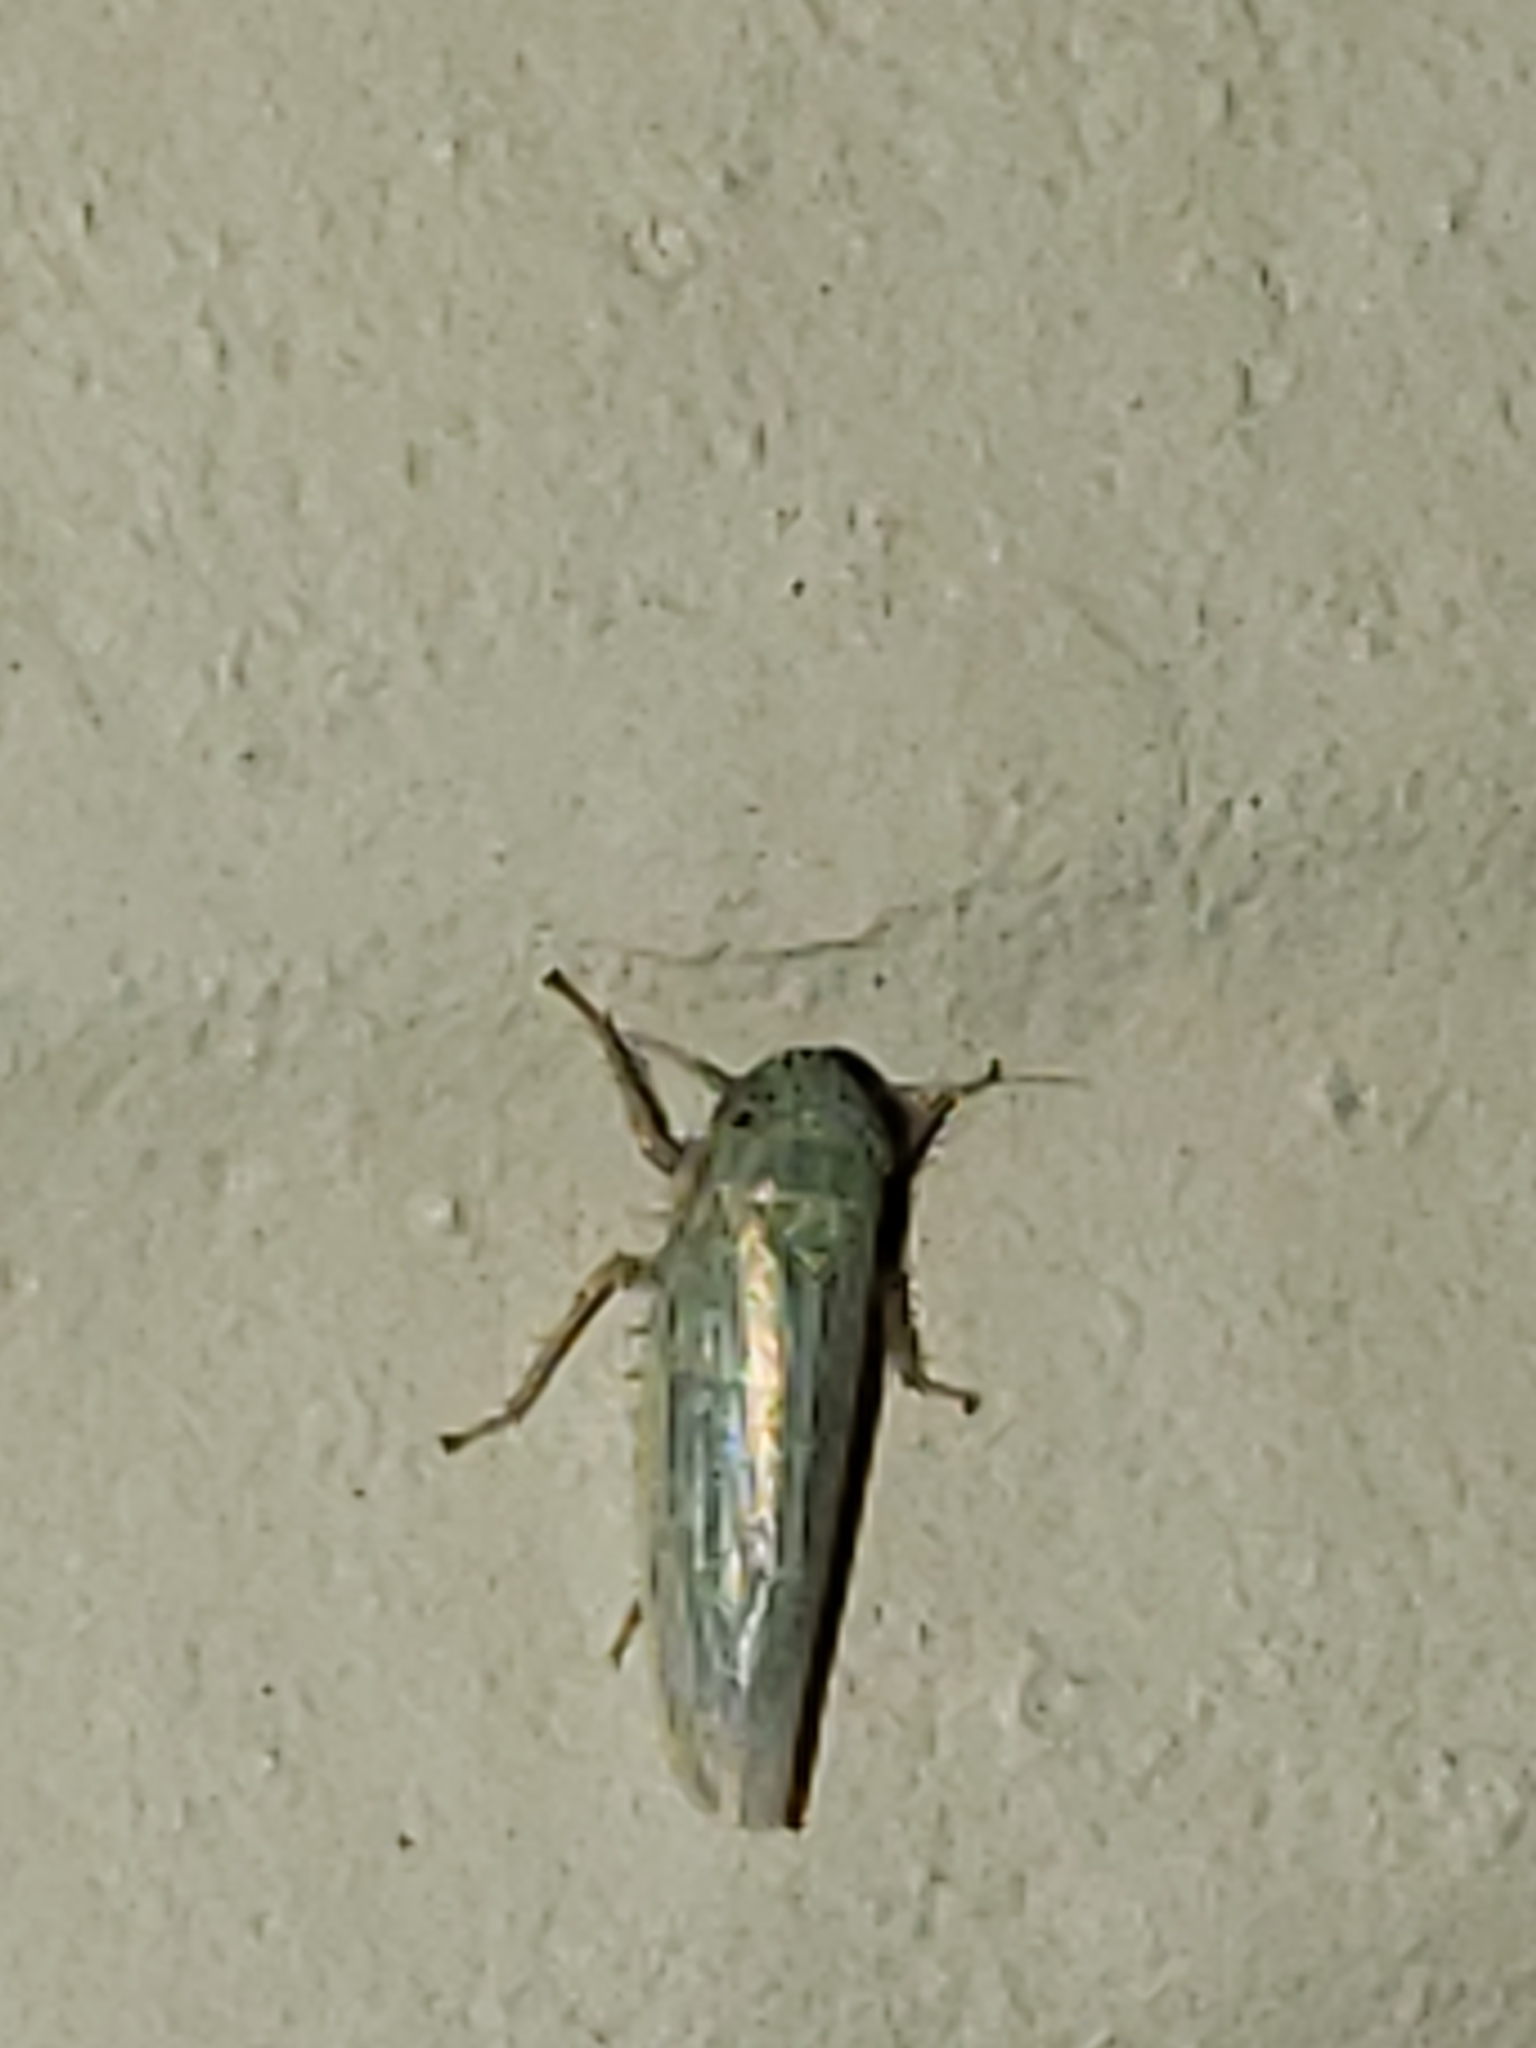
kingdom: Animalia
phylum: Arthropoda
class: Insecta
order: Hemiptera
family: Cicadellidae
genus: Graminella
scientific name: Graminella nigrifrons
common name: Blackfaced leafhopper
